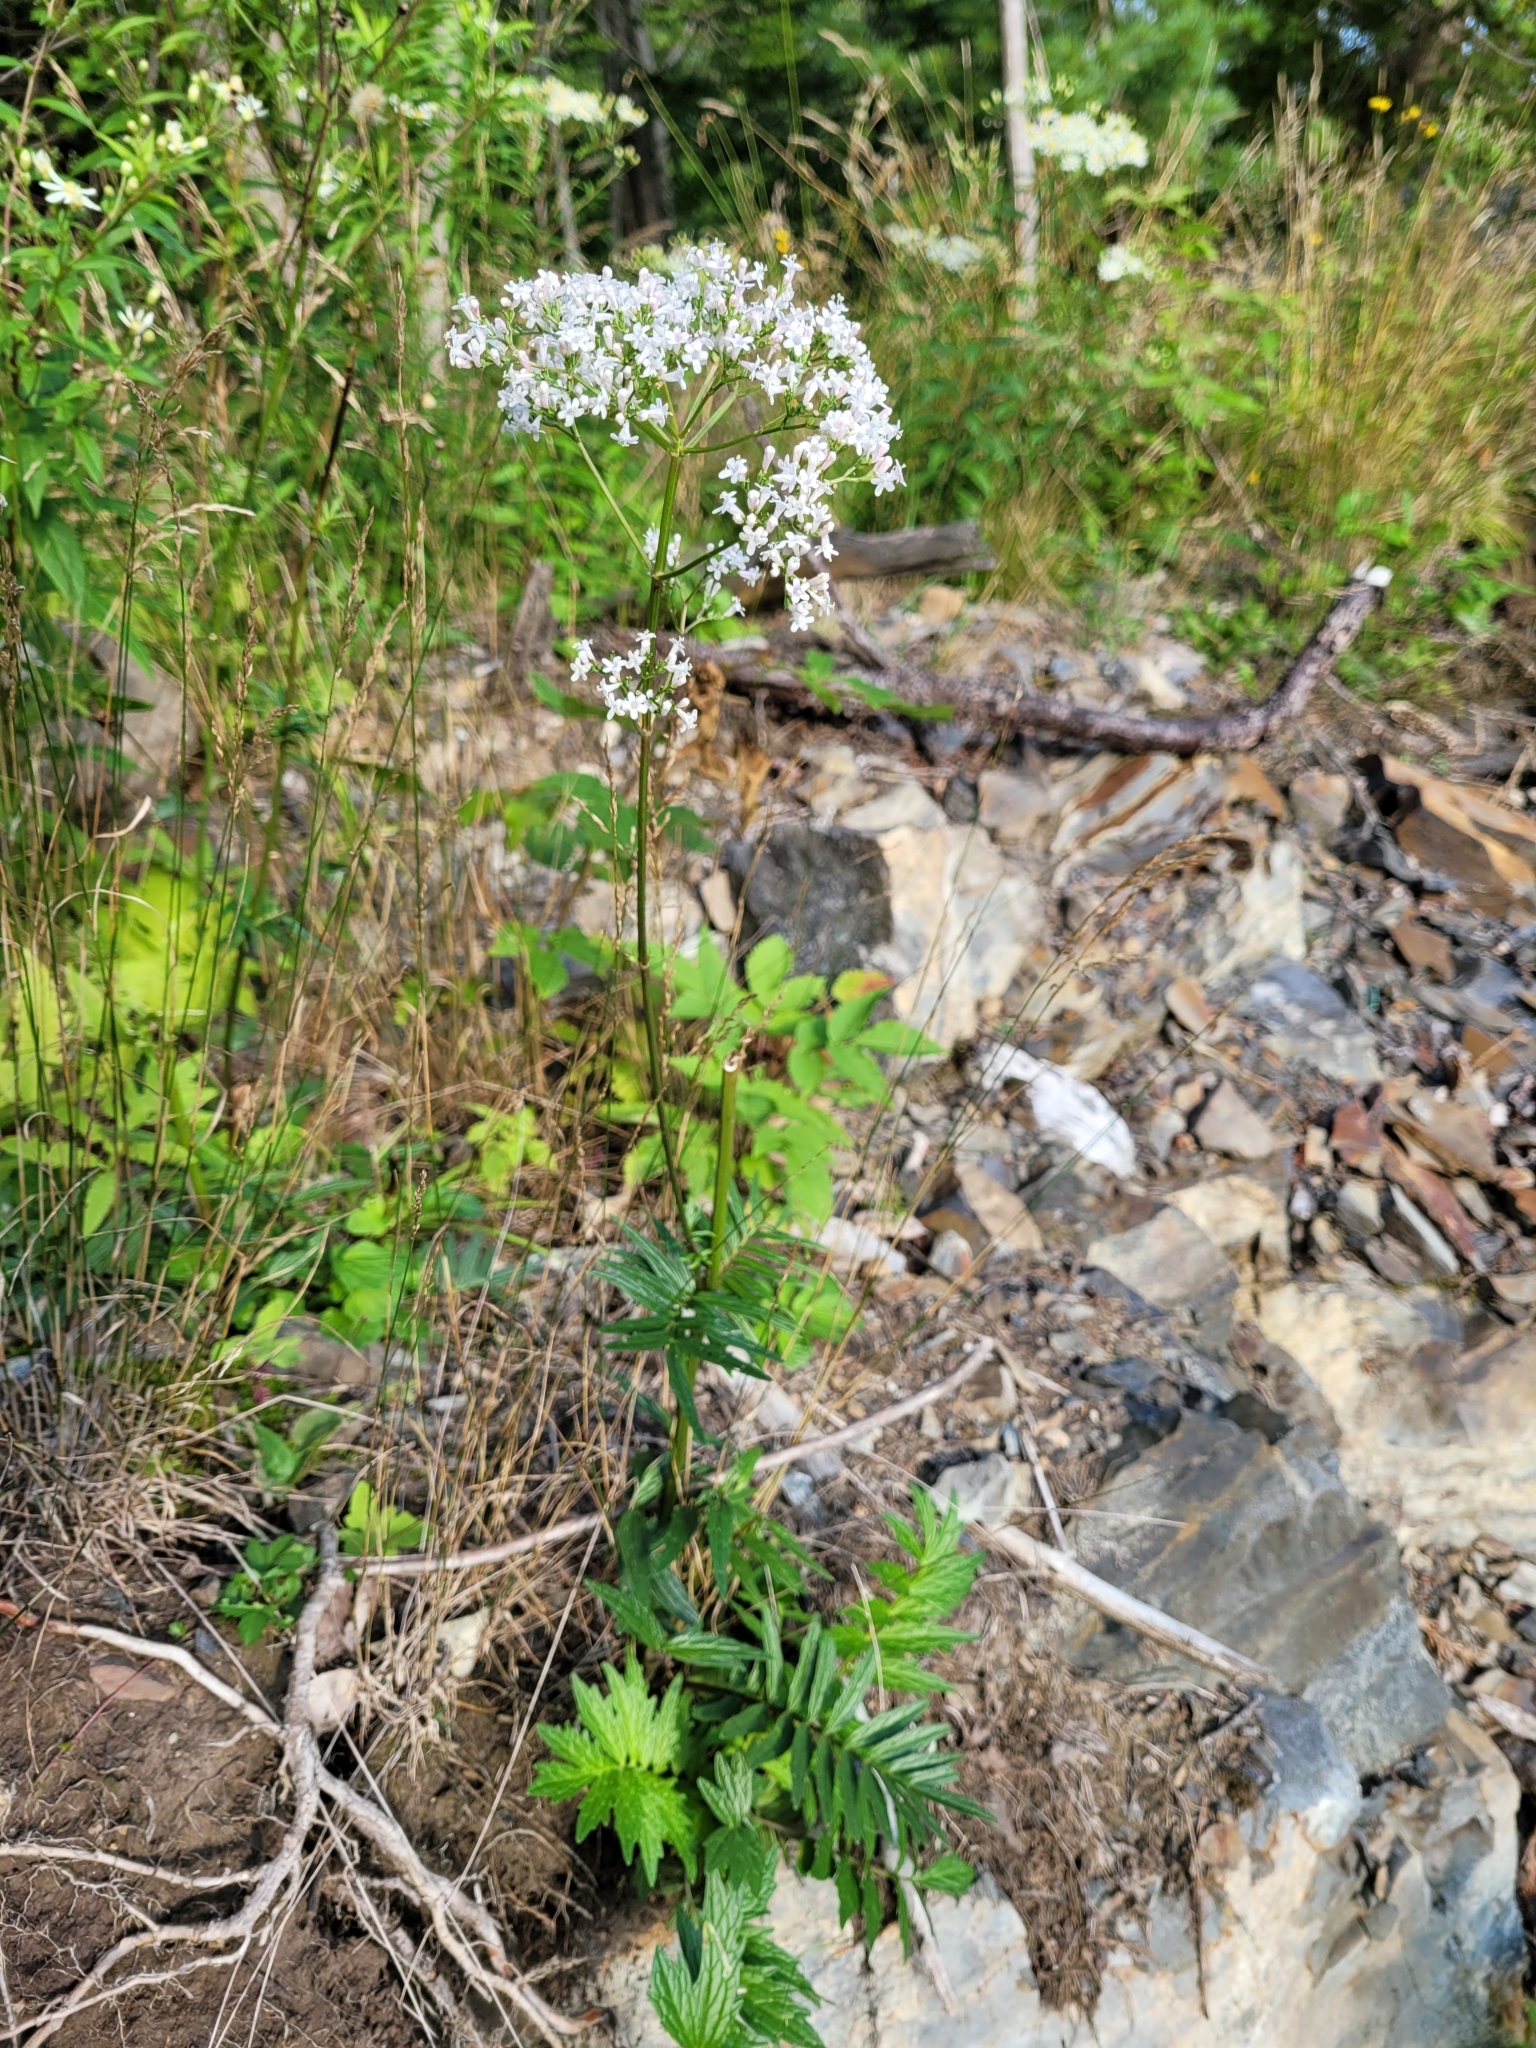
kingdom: Plantae
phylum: Tracheophyta
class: Magnoliopsida
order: Dipsacales
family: Caprifoliaceae
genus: Valeriana
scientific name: Valeriana officinalis
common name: Common valerian
